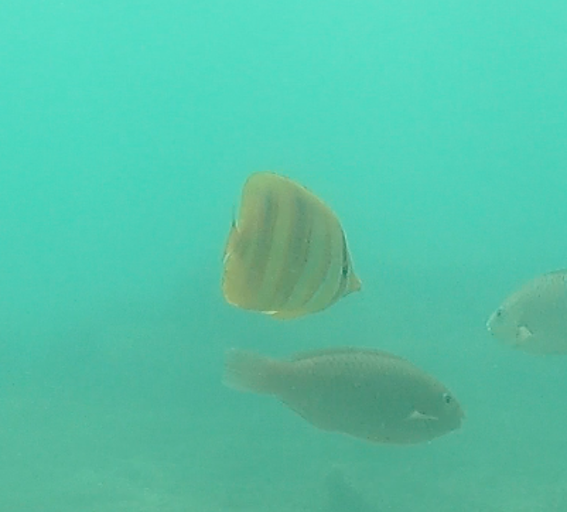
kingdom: Animalia
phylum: Chordata
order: Perciformes
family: Chaetodontidae
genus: Chaetodon
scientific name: Chaetodon rainfordi
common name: Rainford's butterflyfish
